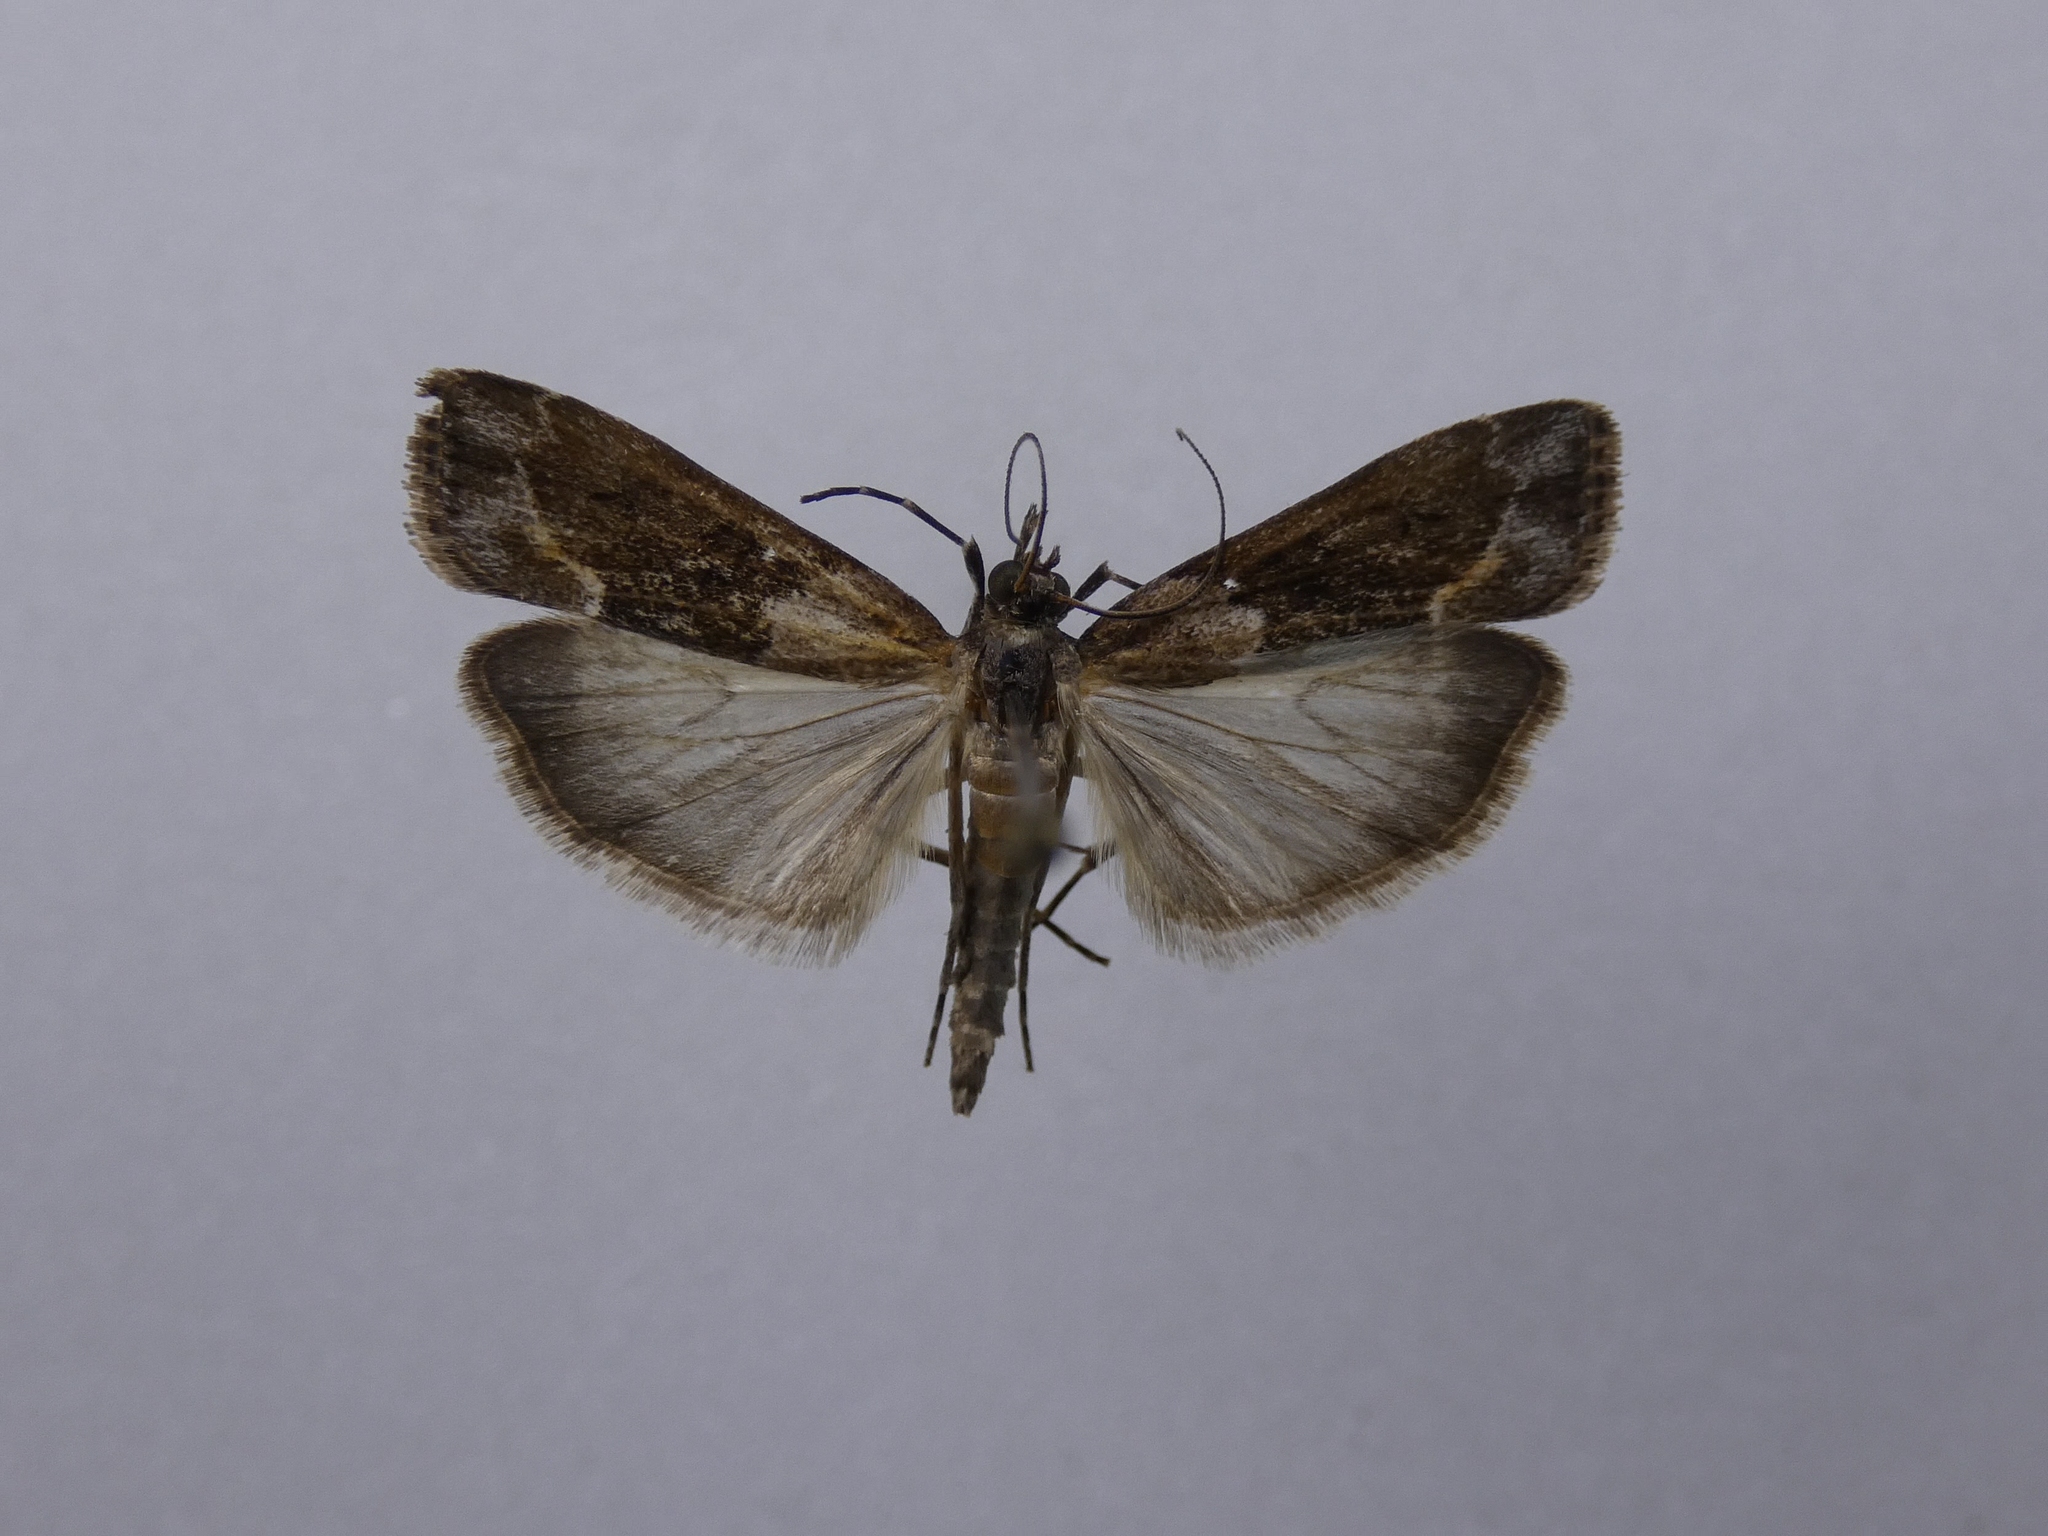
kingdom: Animalia
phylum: Arthropoda
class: Insecta
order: Lepidoptera
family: Crambidae
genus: Eudonia
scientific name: Eudonia submarginalis
